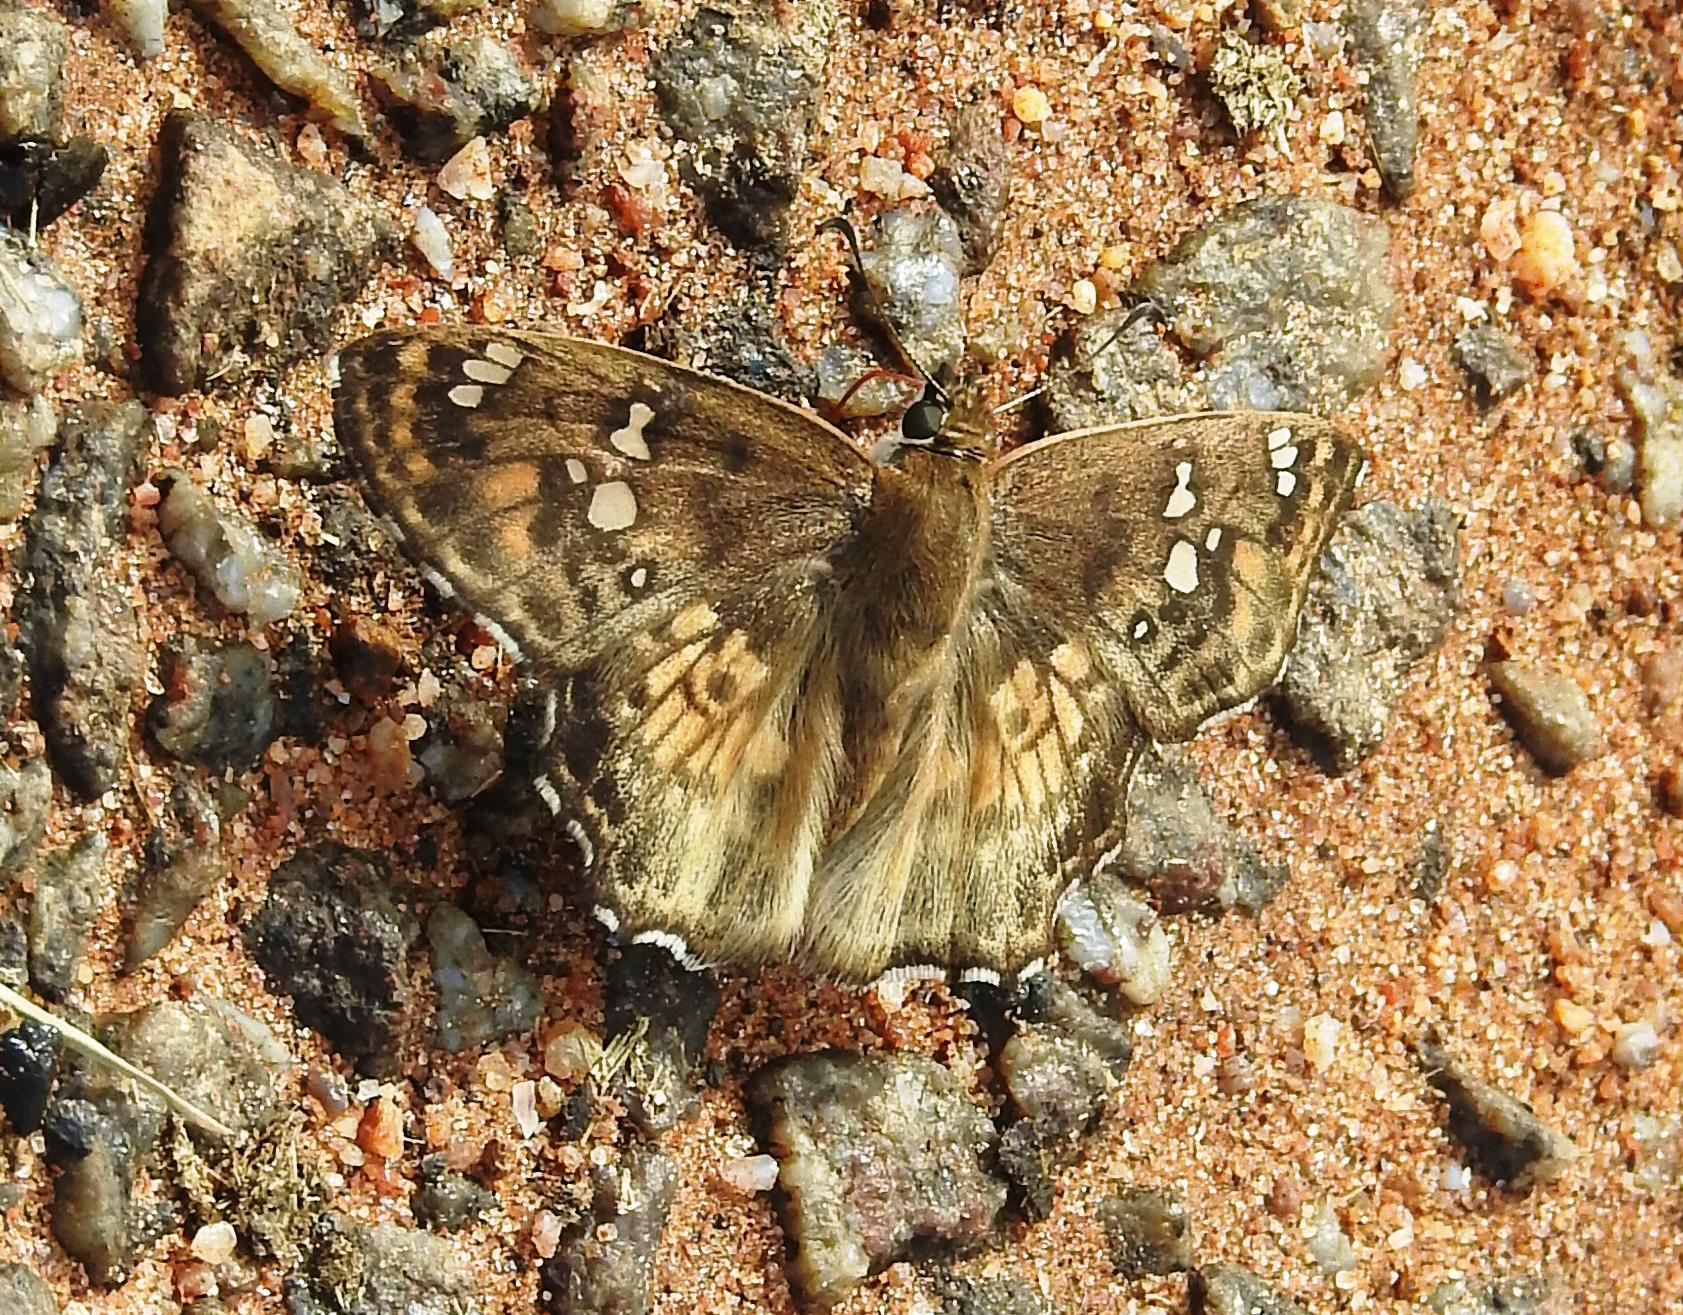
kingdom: Animalia
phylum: Arthropoda
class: Insecta
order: Lepidoptera
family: Hesperiidae
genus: Caprona
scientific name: Caprona ransonnettii
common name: Golden angle
